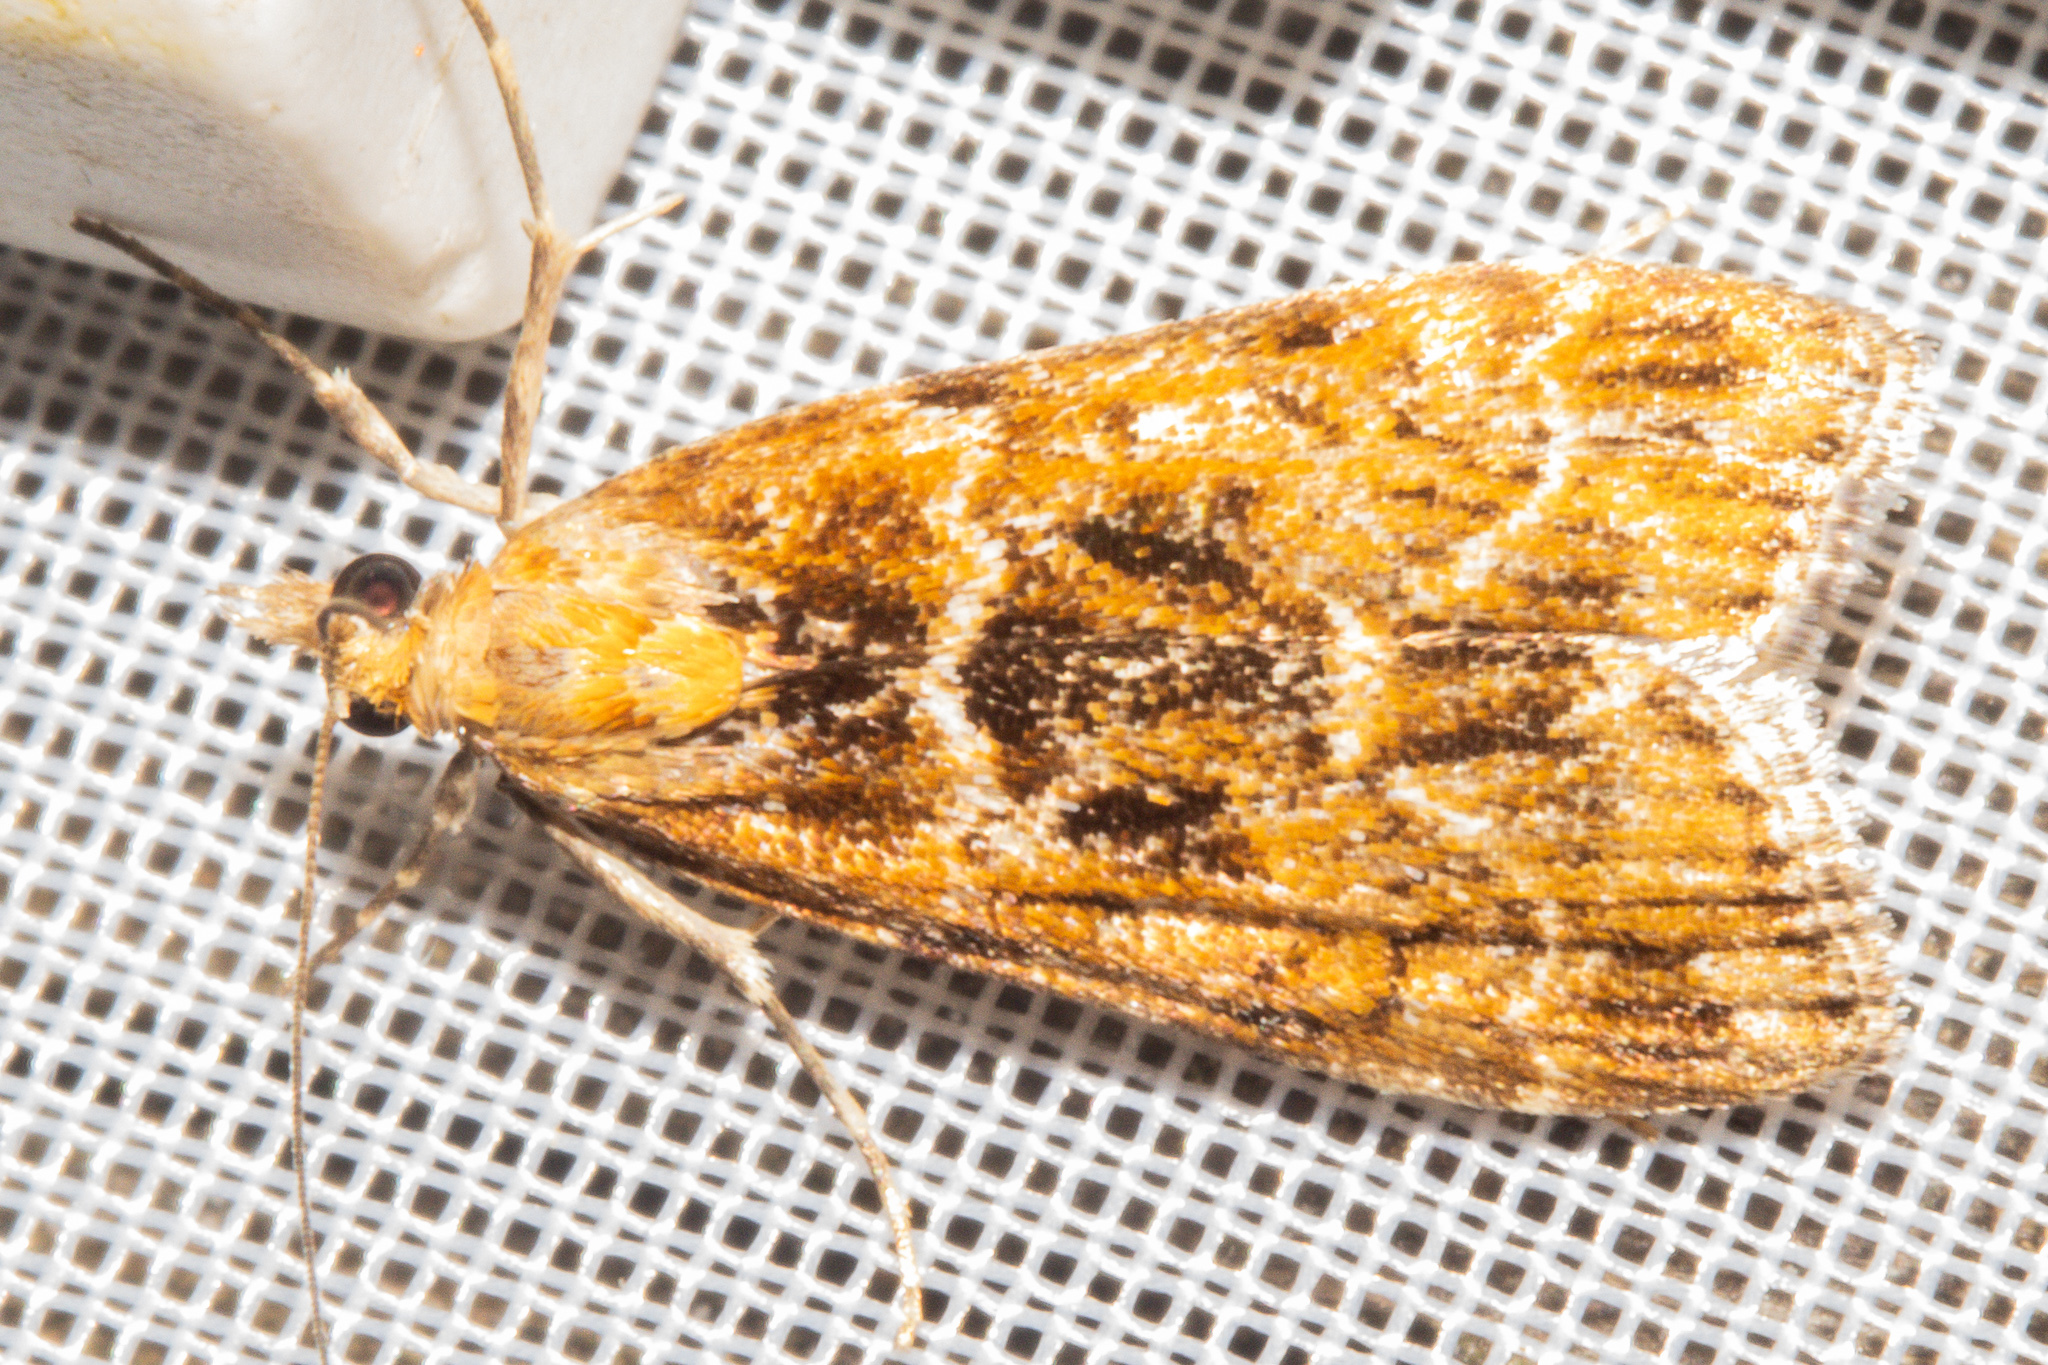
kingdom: Animalia
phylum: Arthropoda
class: Insecta
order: Lepidoptera
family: Crambidae
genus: Scoparia
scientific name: Scoparia animosa
